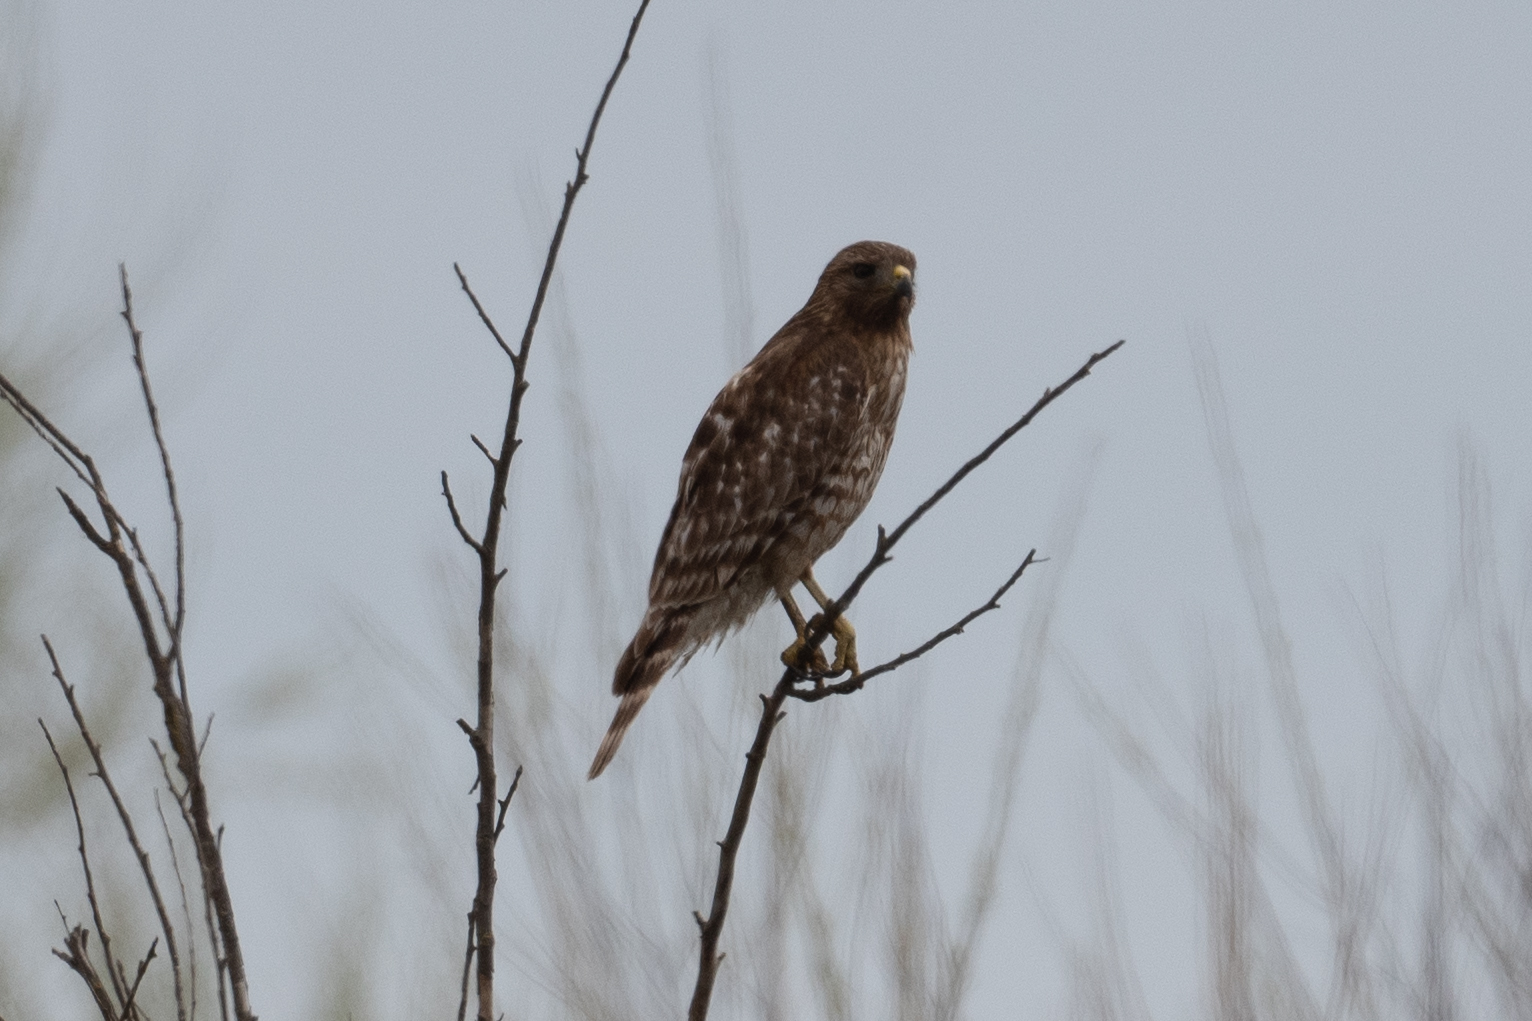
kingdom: Animalia
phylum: Chordata
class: Aves
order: Accipitriformes
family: Accipitridae
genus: Buteo
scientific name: Buteo lineatus
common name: Red-shouldered hawk
